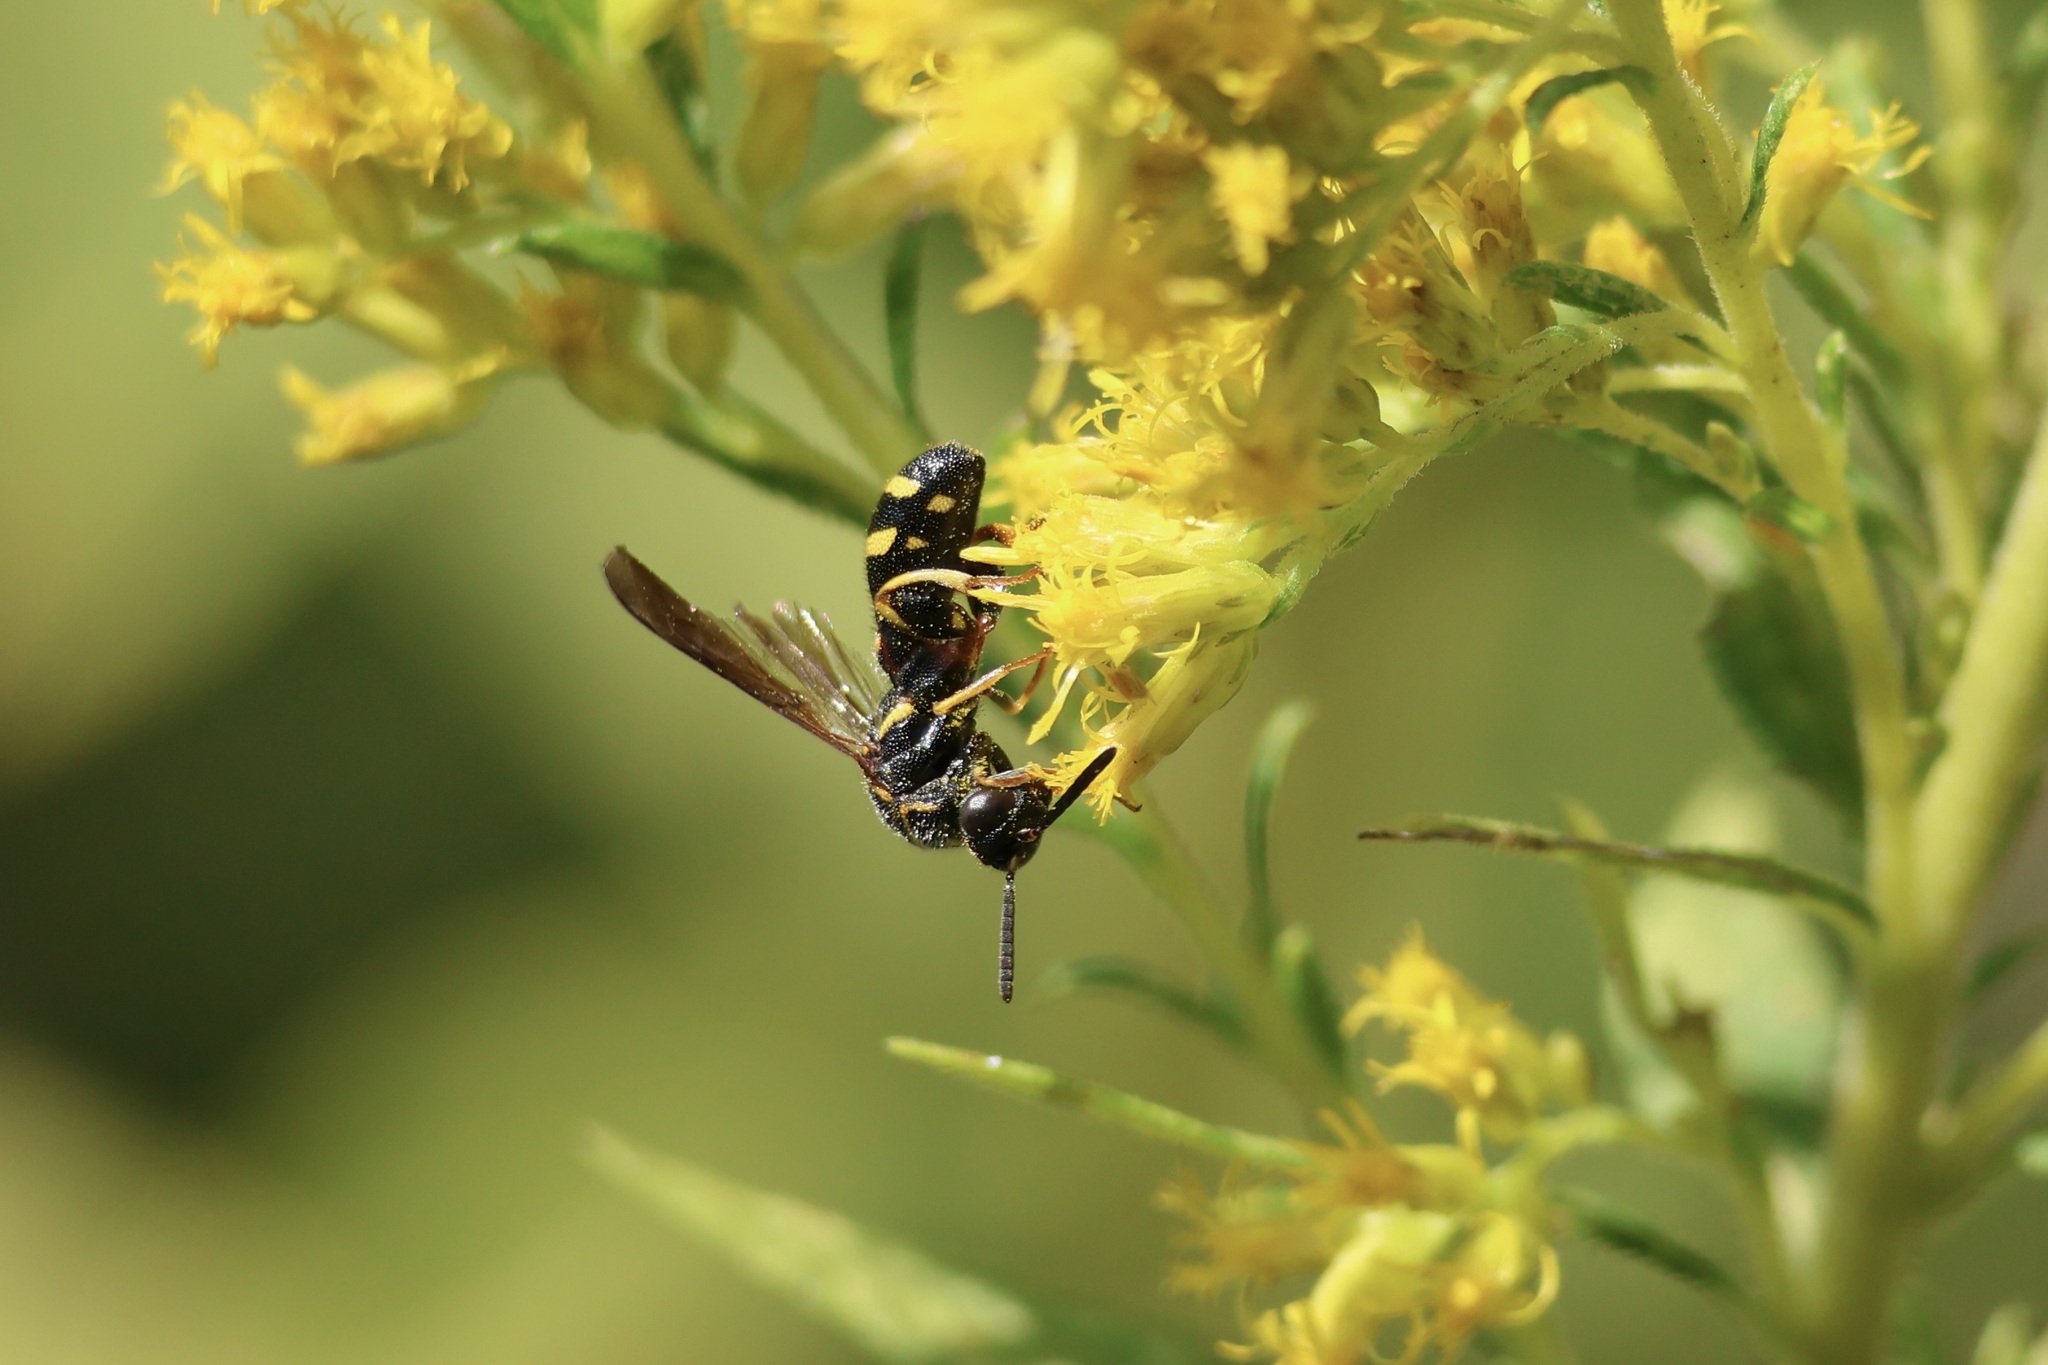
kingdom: Animalia
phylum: Arthropoda
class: Insecta
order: Hymenoptera
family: Leucospidae
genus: Leucospis
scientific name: Leucospis affinis
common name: Wasp
